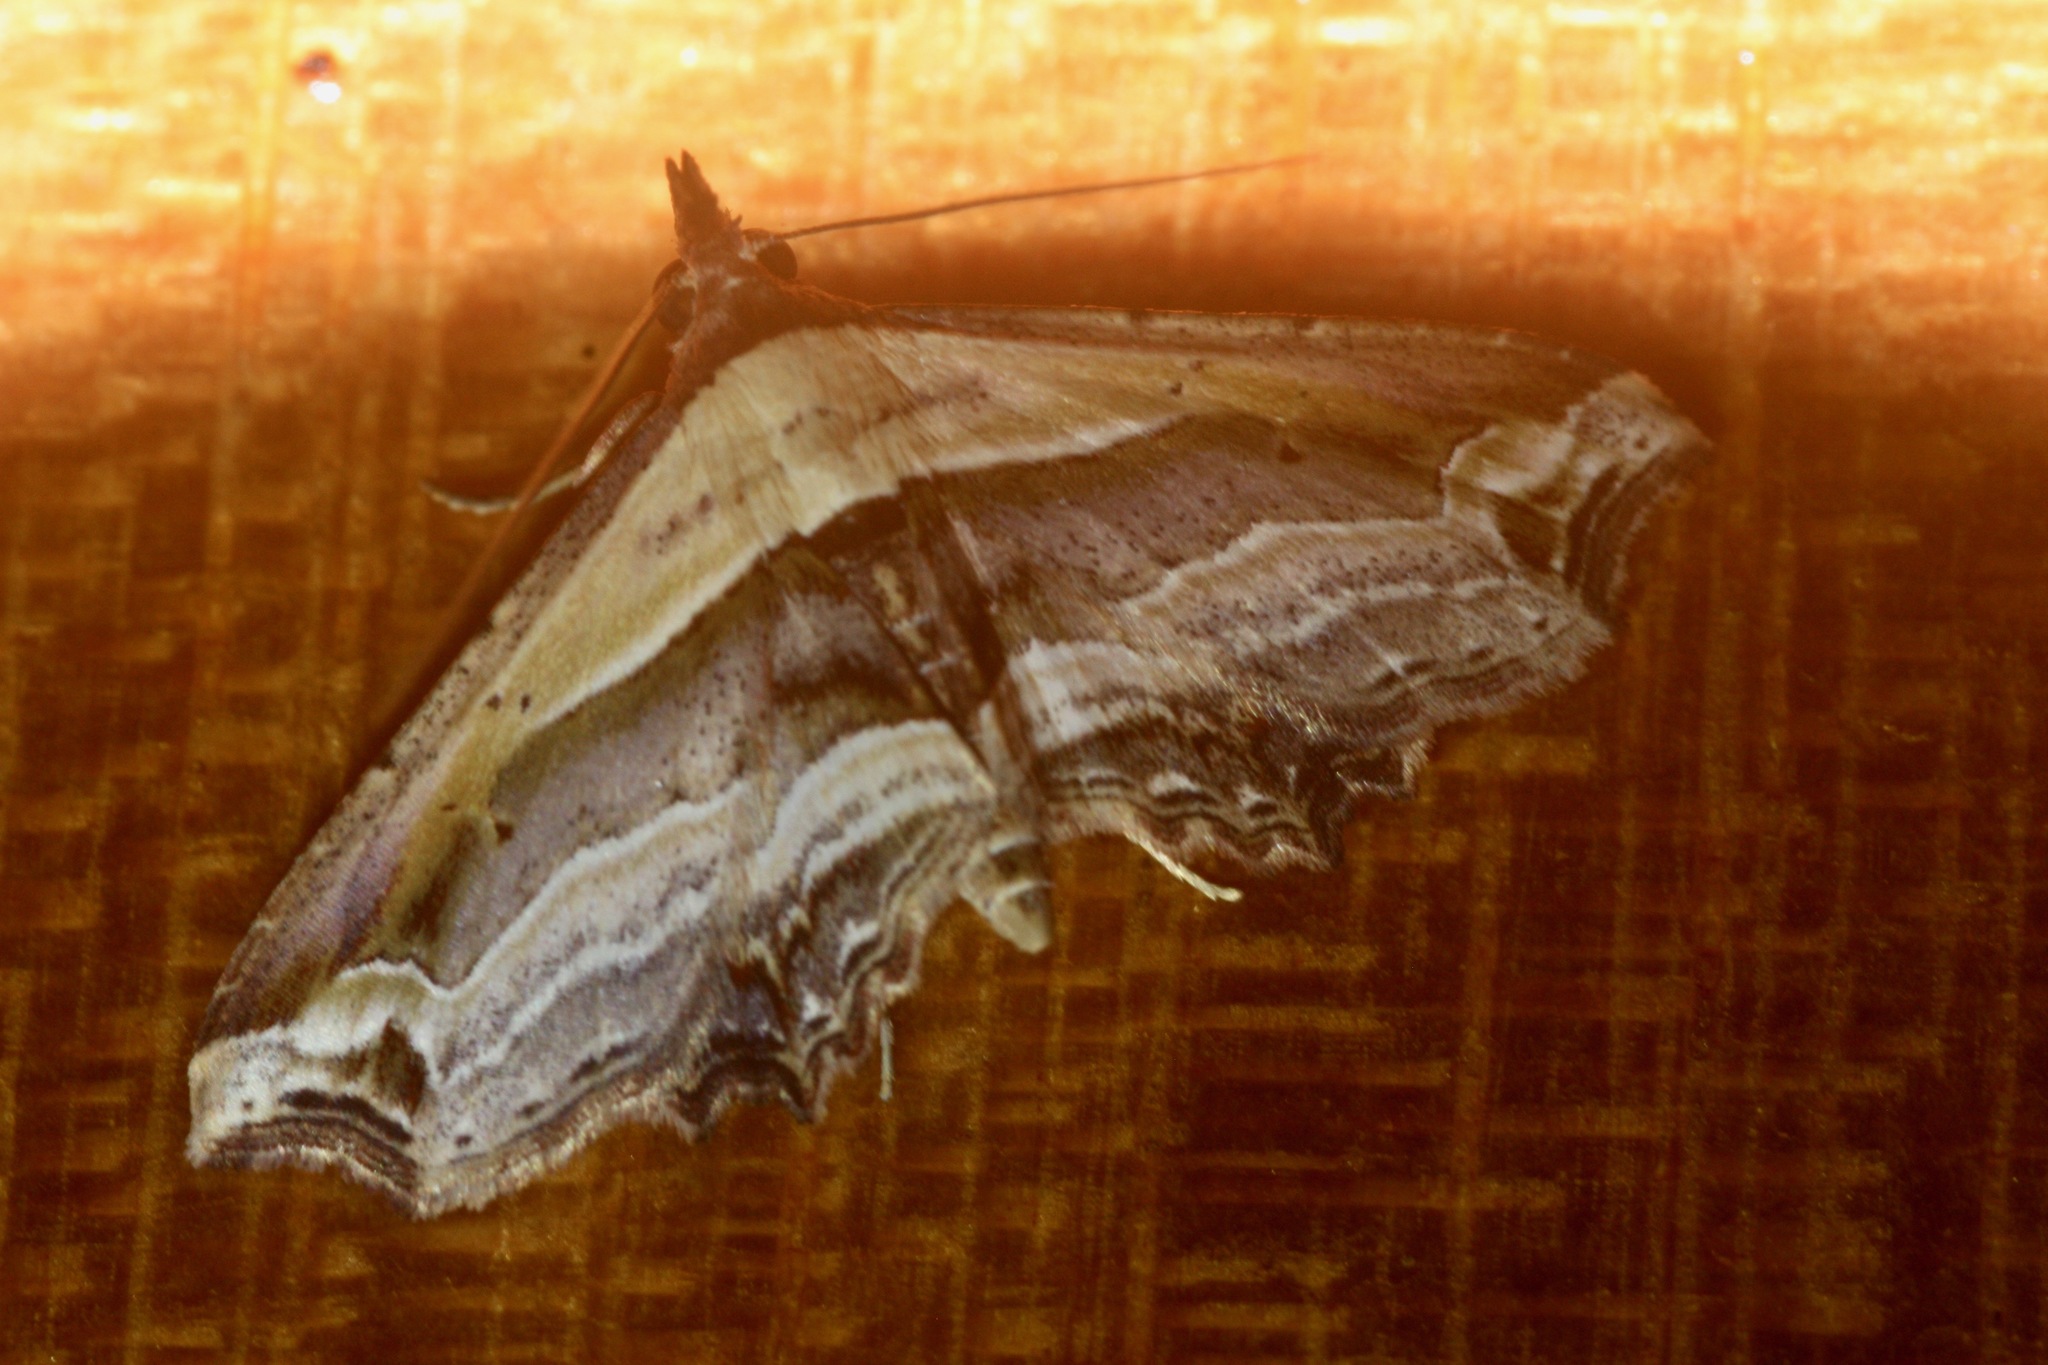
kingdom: Animalia
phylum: Arthropoda
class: Insecta
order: Lepidoptera
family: Erebidae
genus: Eugoniella
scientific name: Eugoniella sapota
